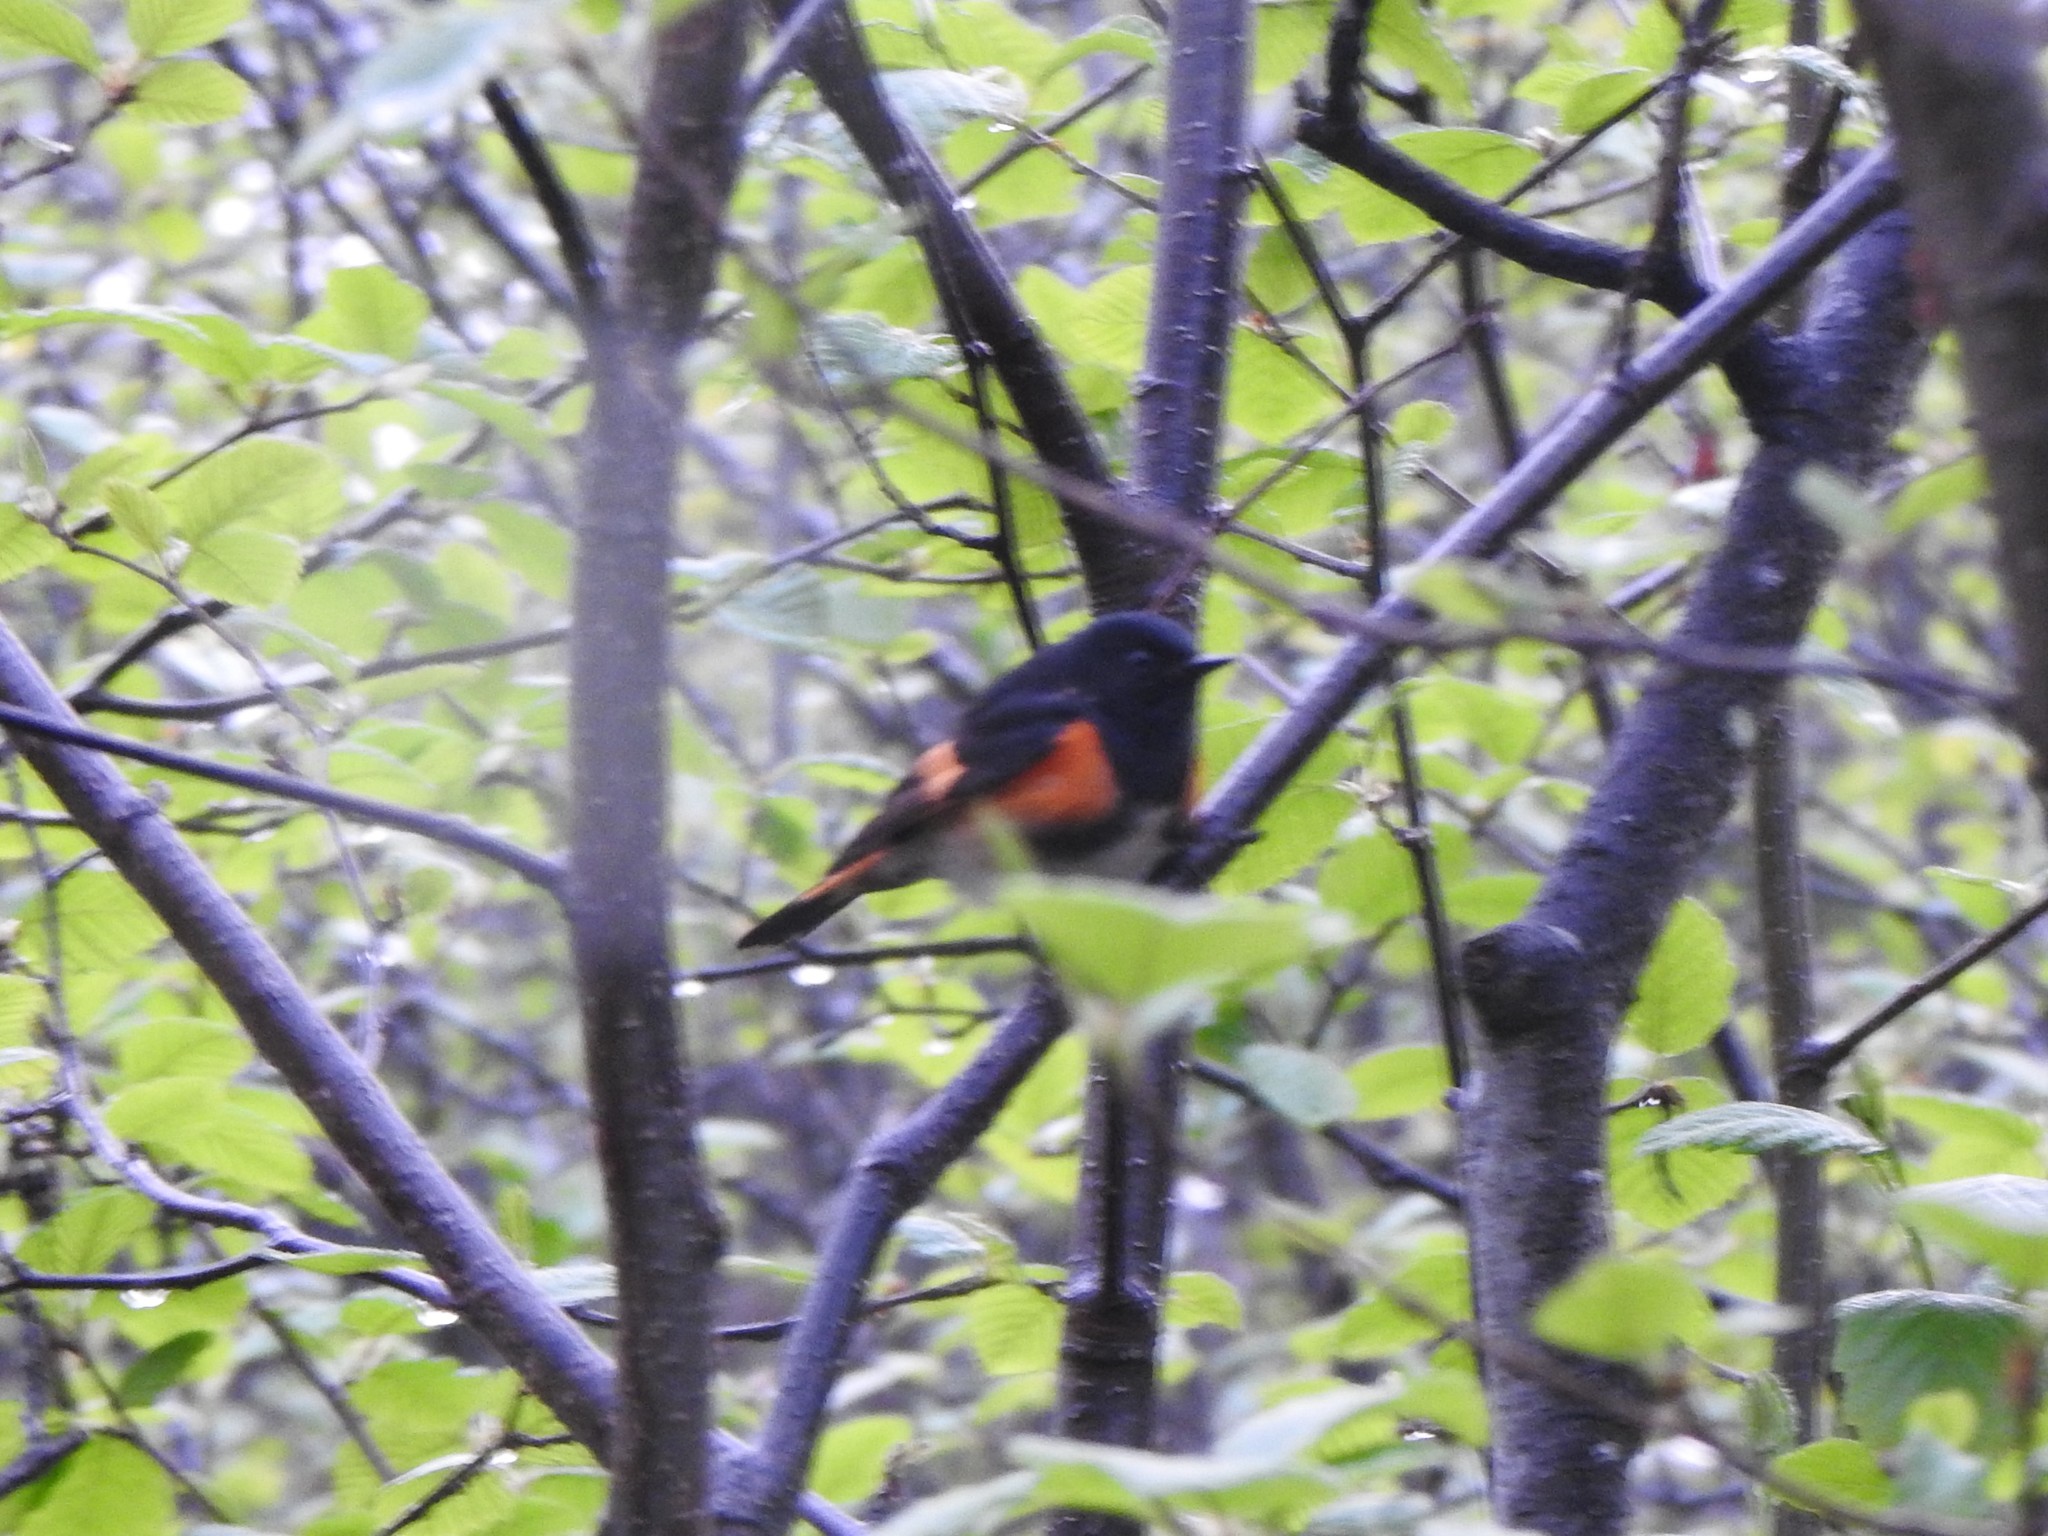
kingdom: Animalia
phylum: Chordata
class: Aves
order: Passeriformes
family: Parulidae
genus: Setophaga
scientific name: Setophaga ruticilla
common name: American redstart
